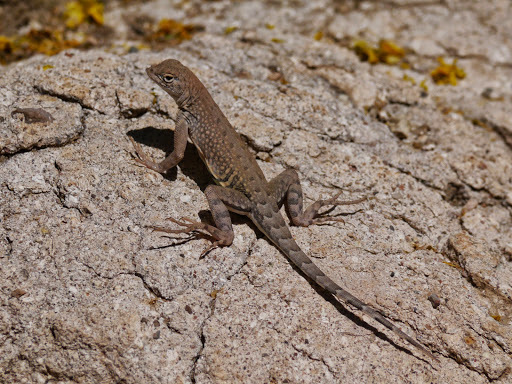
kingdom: Animalia
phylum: Chordata
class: Squamata
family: Phrynosomatidae
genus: Cophosaurus
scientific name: Cophosaurus texanus
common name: Greater earless lizard
